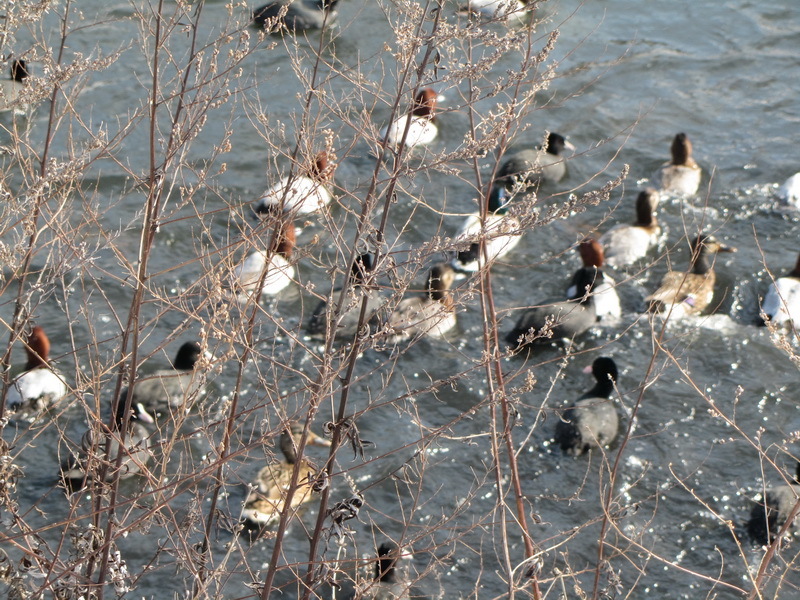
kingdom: Animalia
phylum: Chordata
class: Aves
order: Anseriformes
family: Anatidae
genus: Aythya
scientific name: Aythya ferina
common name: Common pochard
